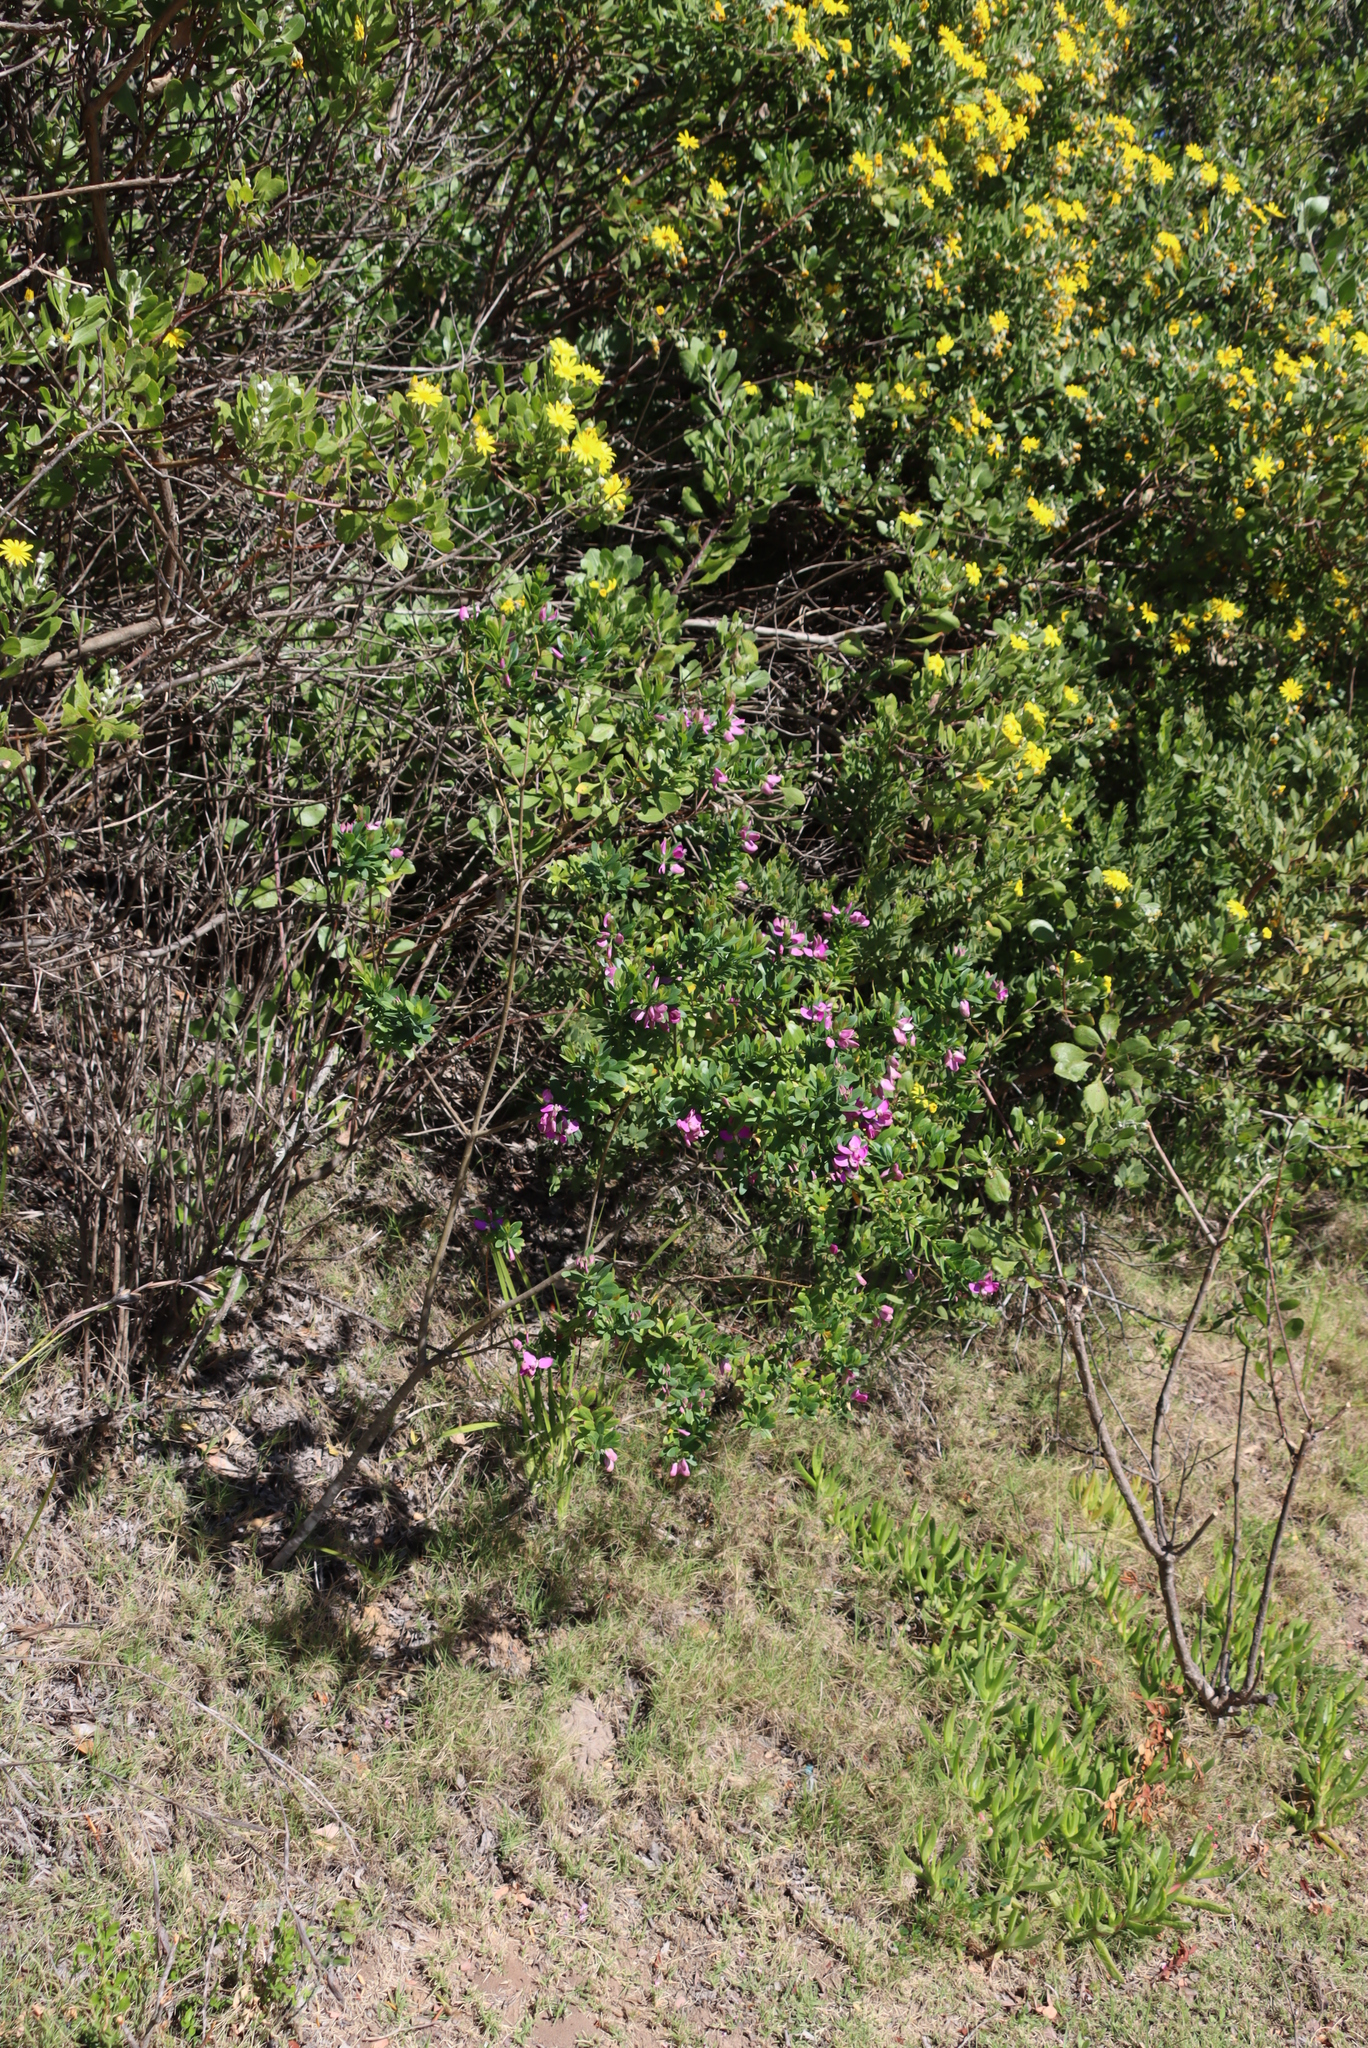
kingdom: Plantae
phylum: Tracheophyta
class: Magnoliopsida
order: Fabales
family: Polygalaceae
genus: Polygala
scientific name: Polygala myrtifolia
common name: Myrtle-leaf milkwort
